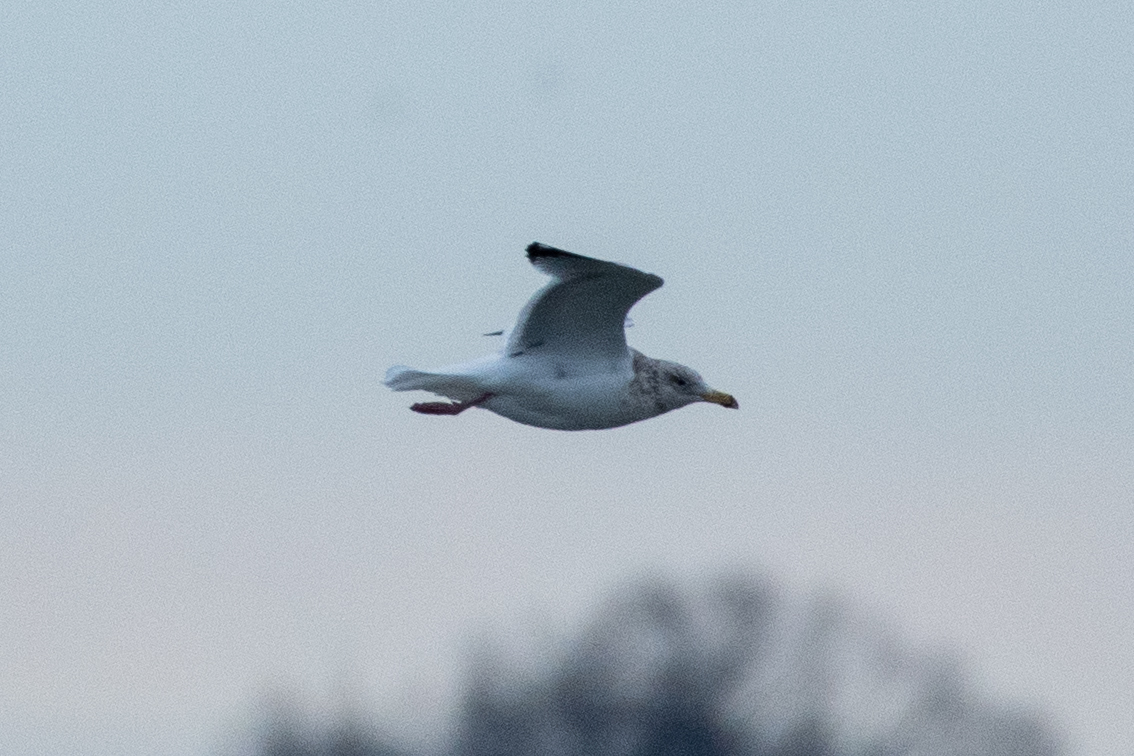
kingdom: Animalia
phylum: Chordata
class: Aves
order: Charadriiformes
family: Laridae
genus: Larus
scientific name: Larus
